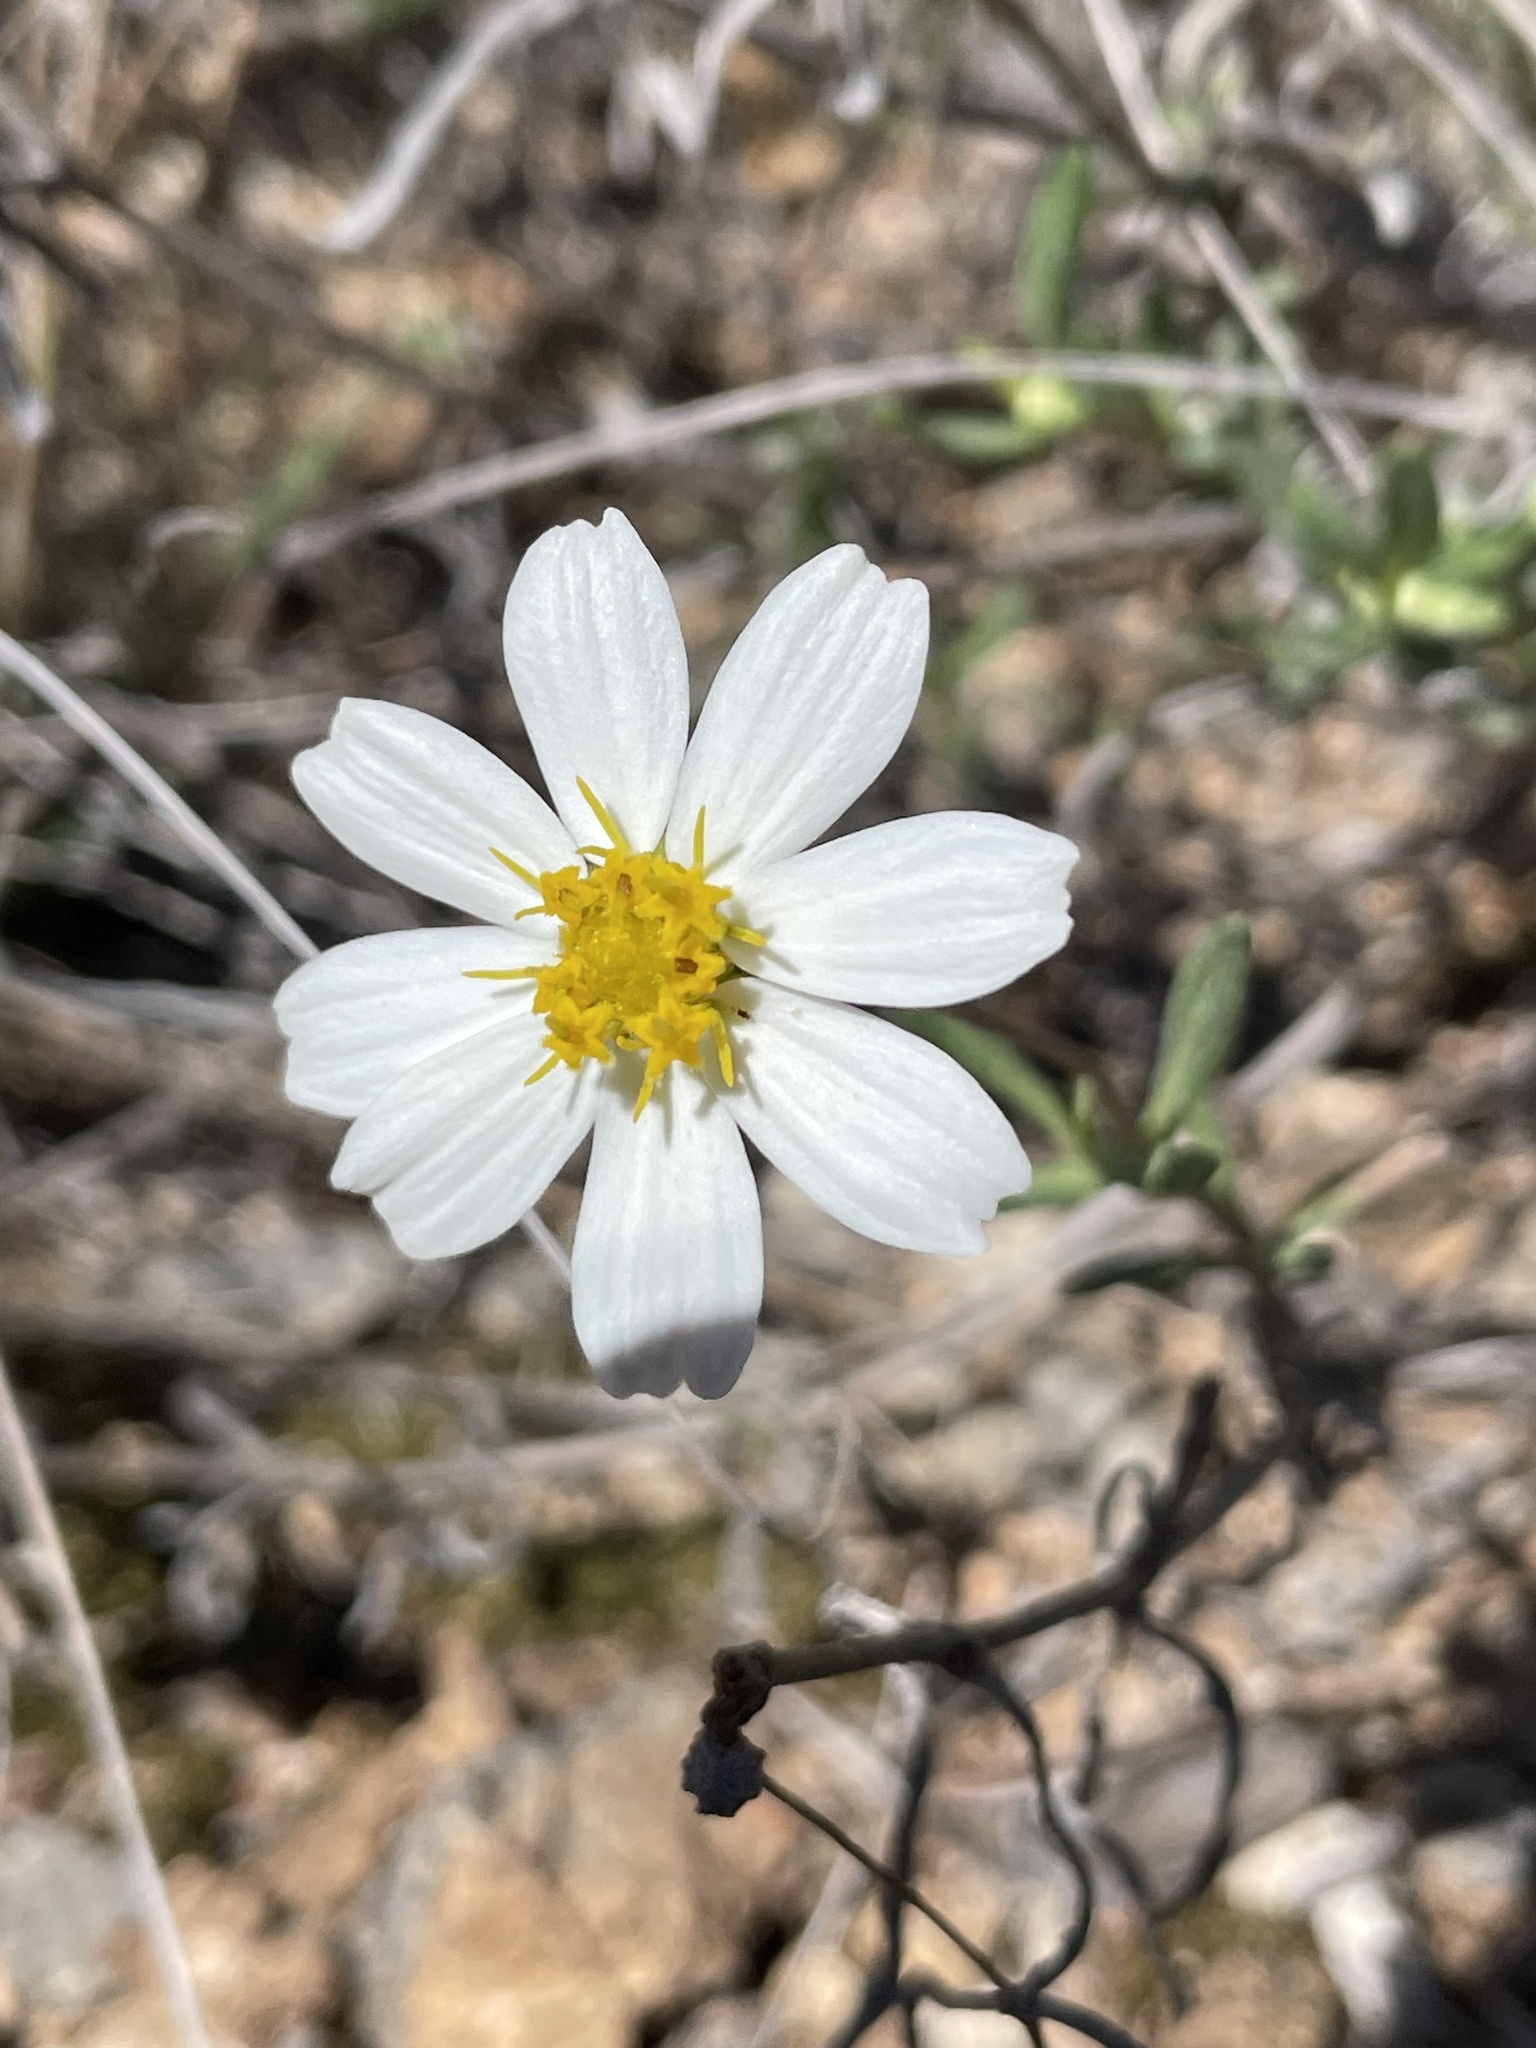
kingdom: Plantae
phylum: Tracheophyta
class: Magnoliopsida
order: Asterales
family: Asteraceae
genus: Melampodium
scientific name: Melampodium leucanthum
